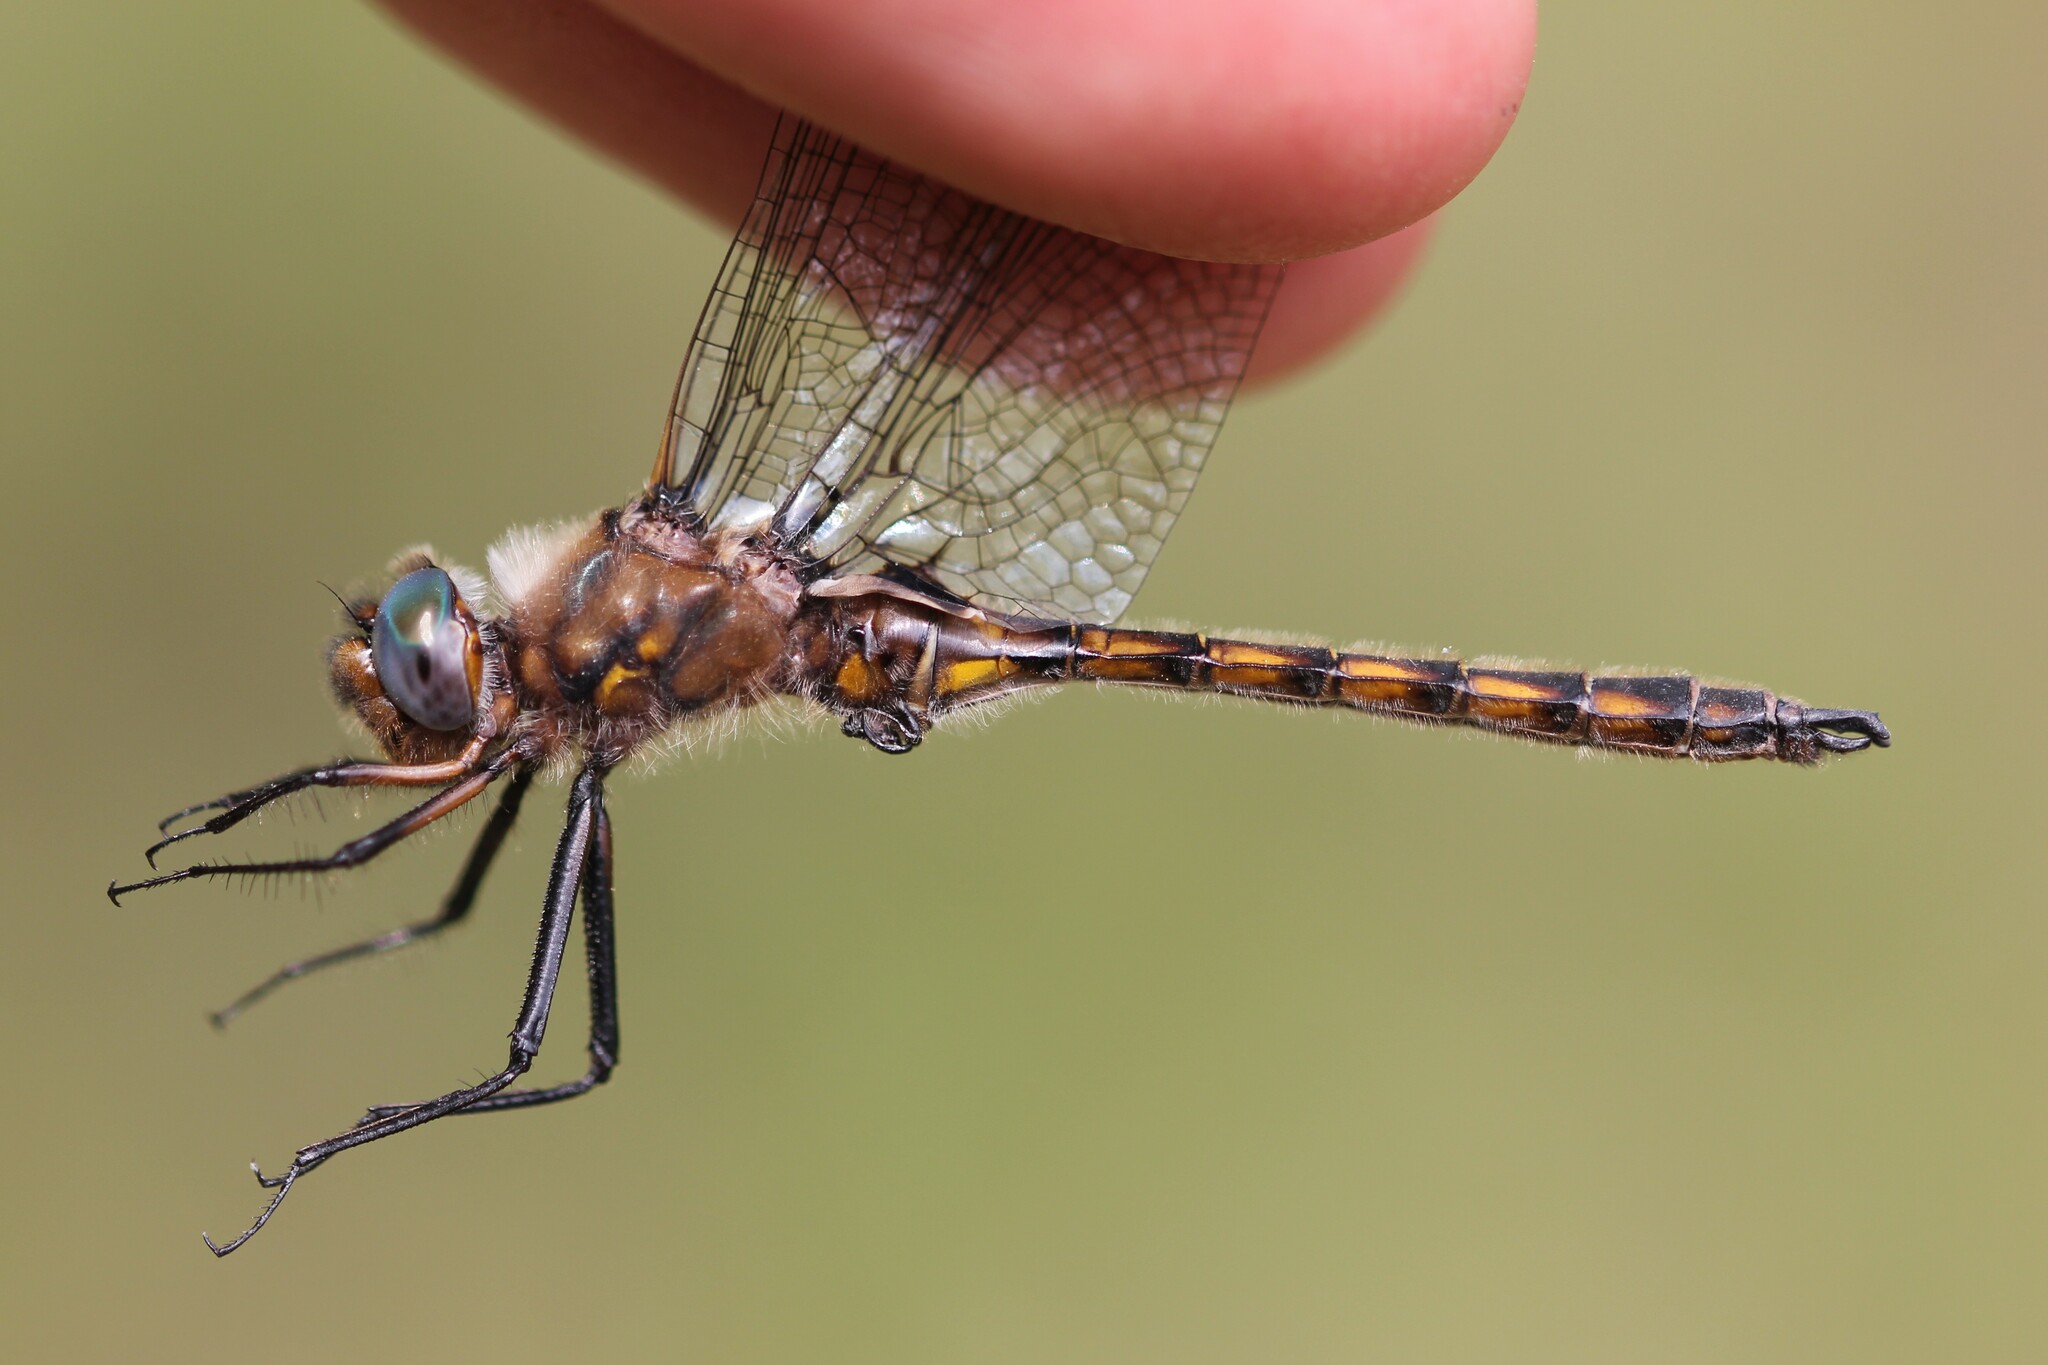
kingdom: Animalia
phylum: Arthropoda
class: Insecta
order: Odonata
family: Corduliidae
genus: Epitheca
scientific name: Epitheca canis
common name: Beaverpond baskettail
